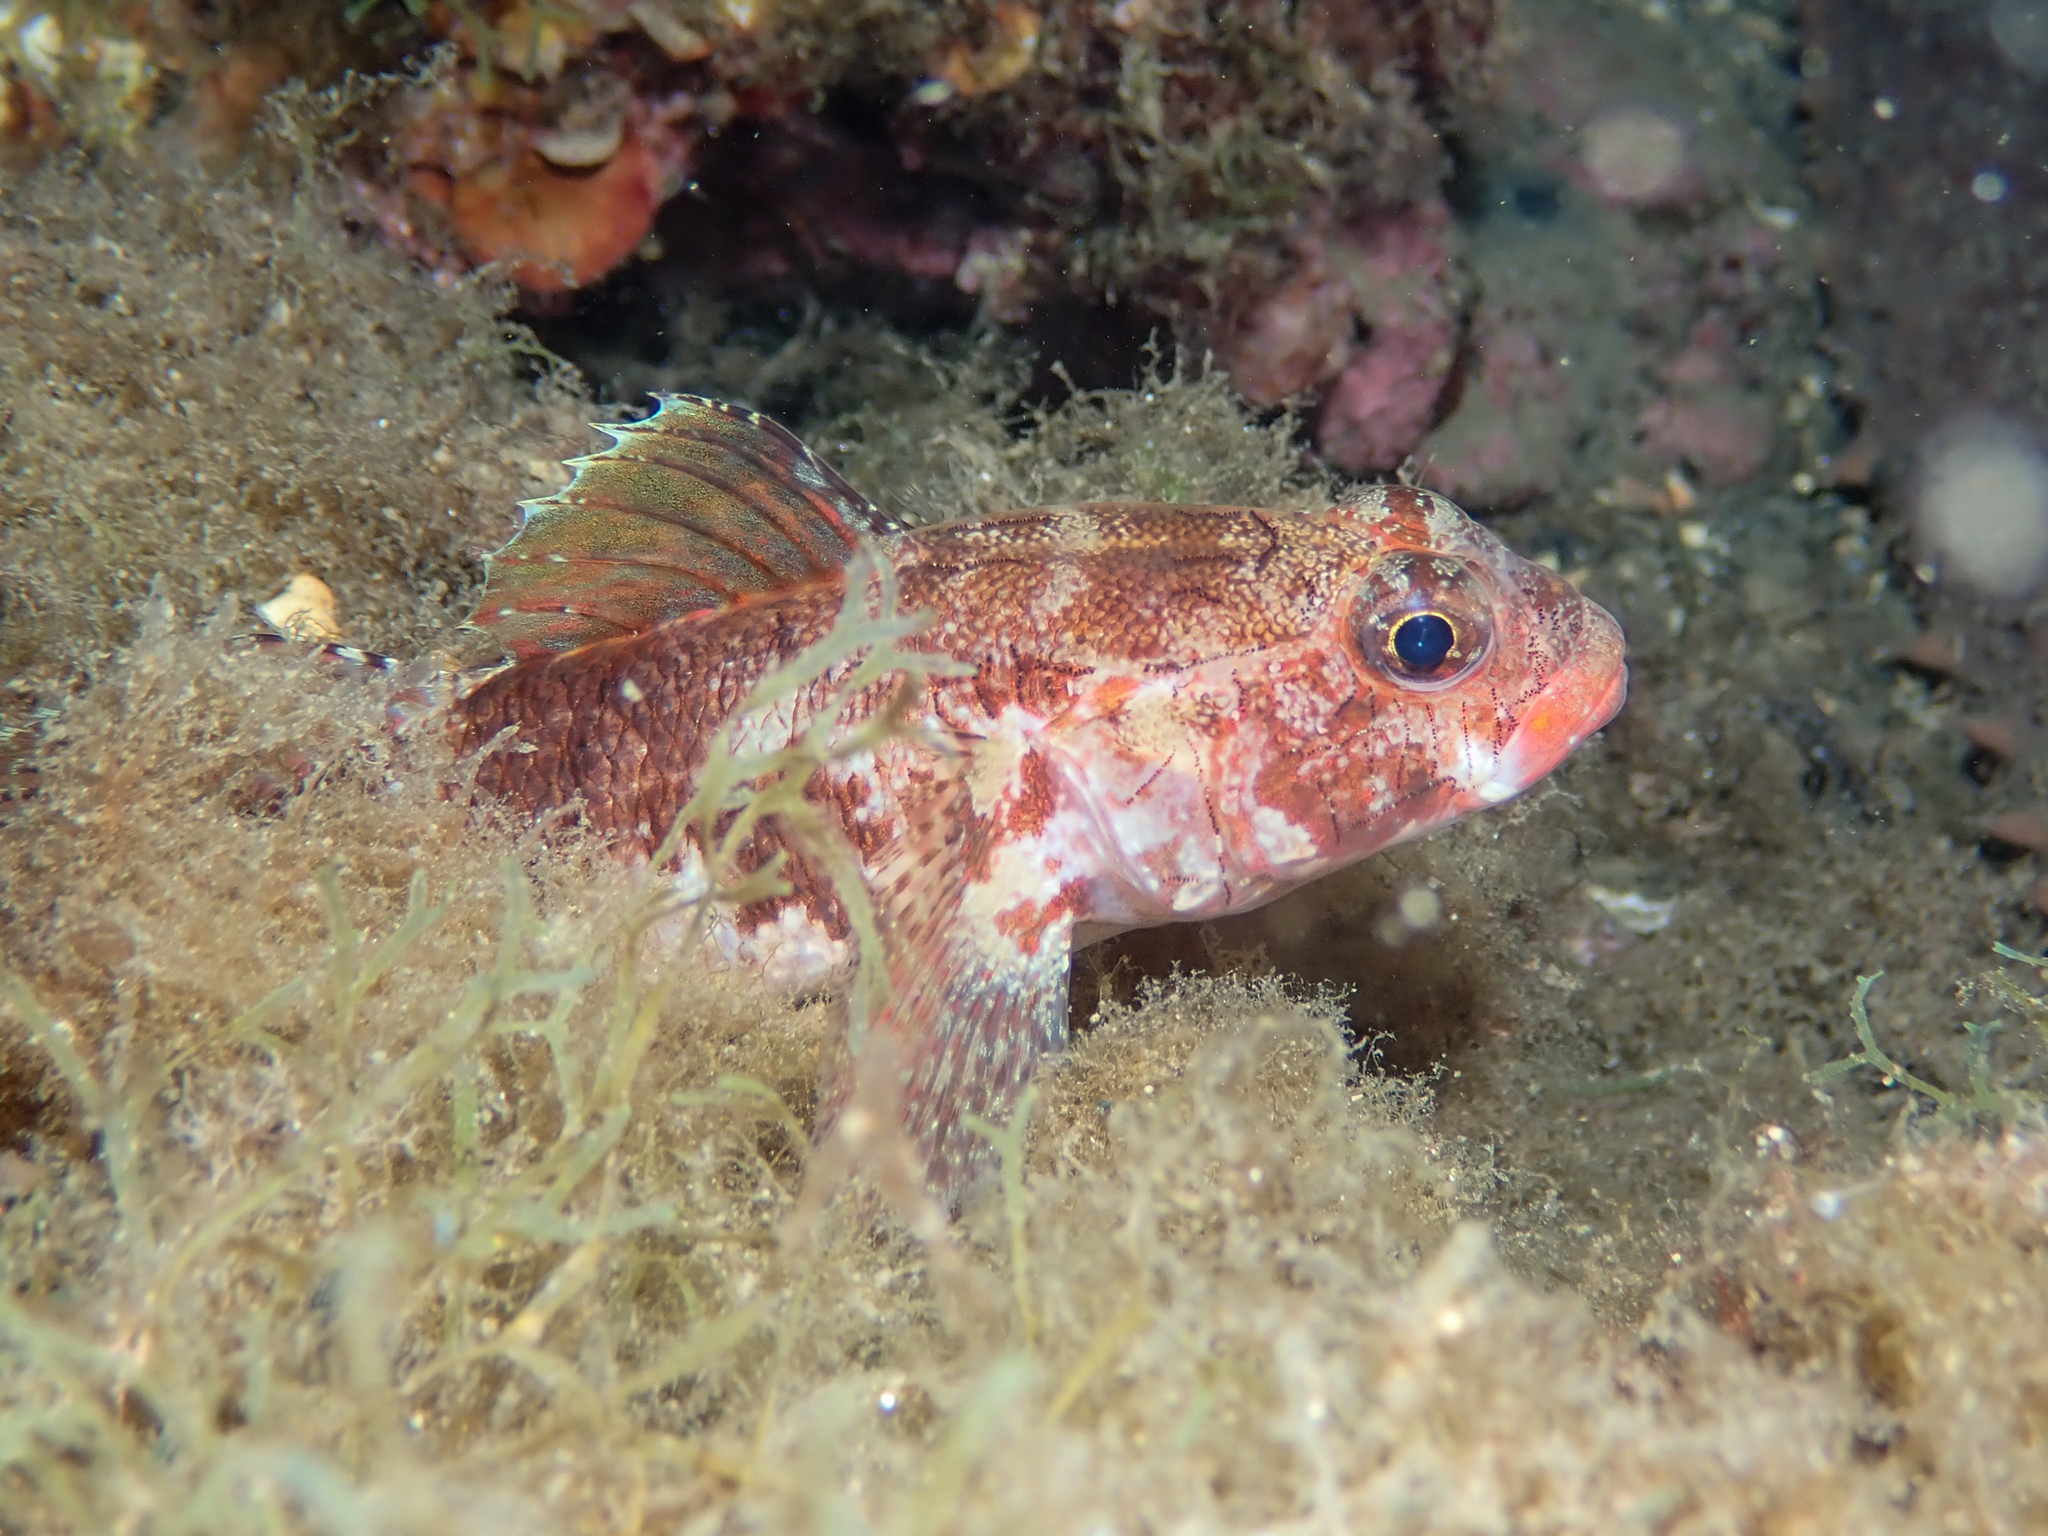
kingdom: Animalia
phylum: Chordata
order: Perciformes
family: Gobiidae
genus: Gobius
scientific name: Gobius cruentatus
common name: Red-mouthed goby
